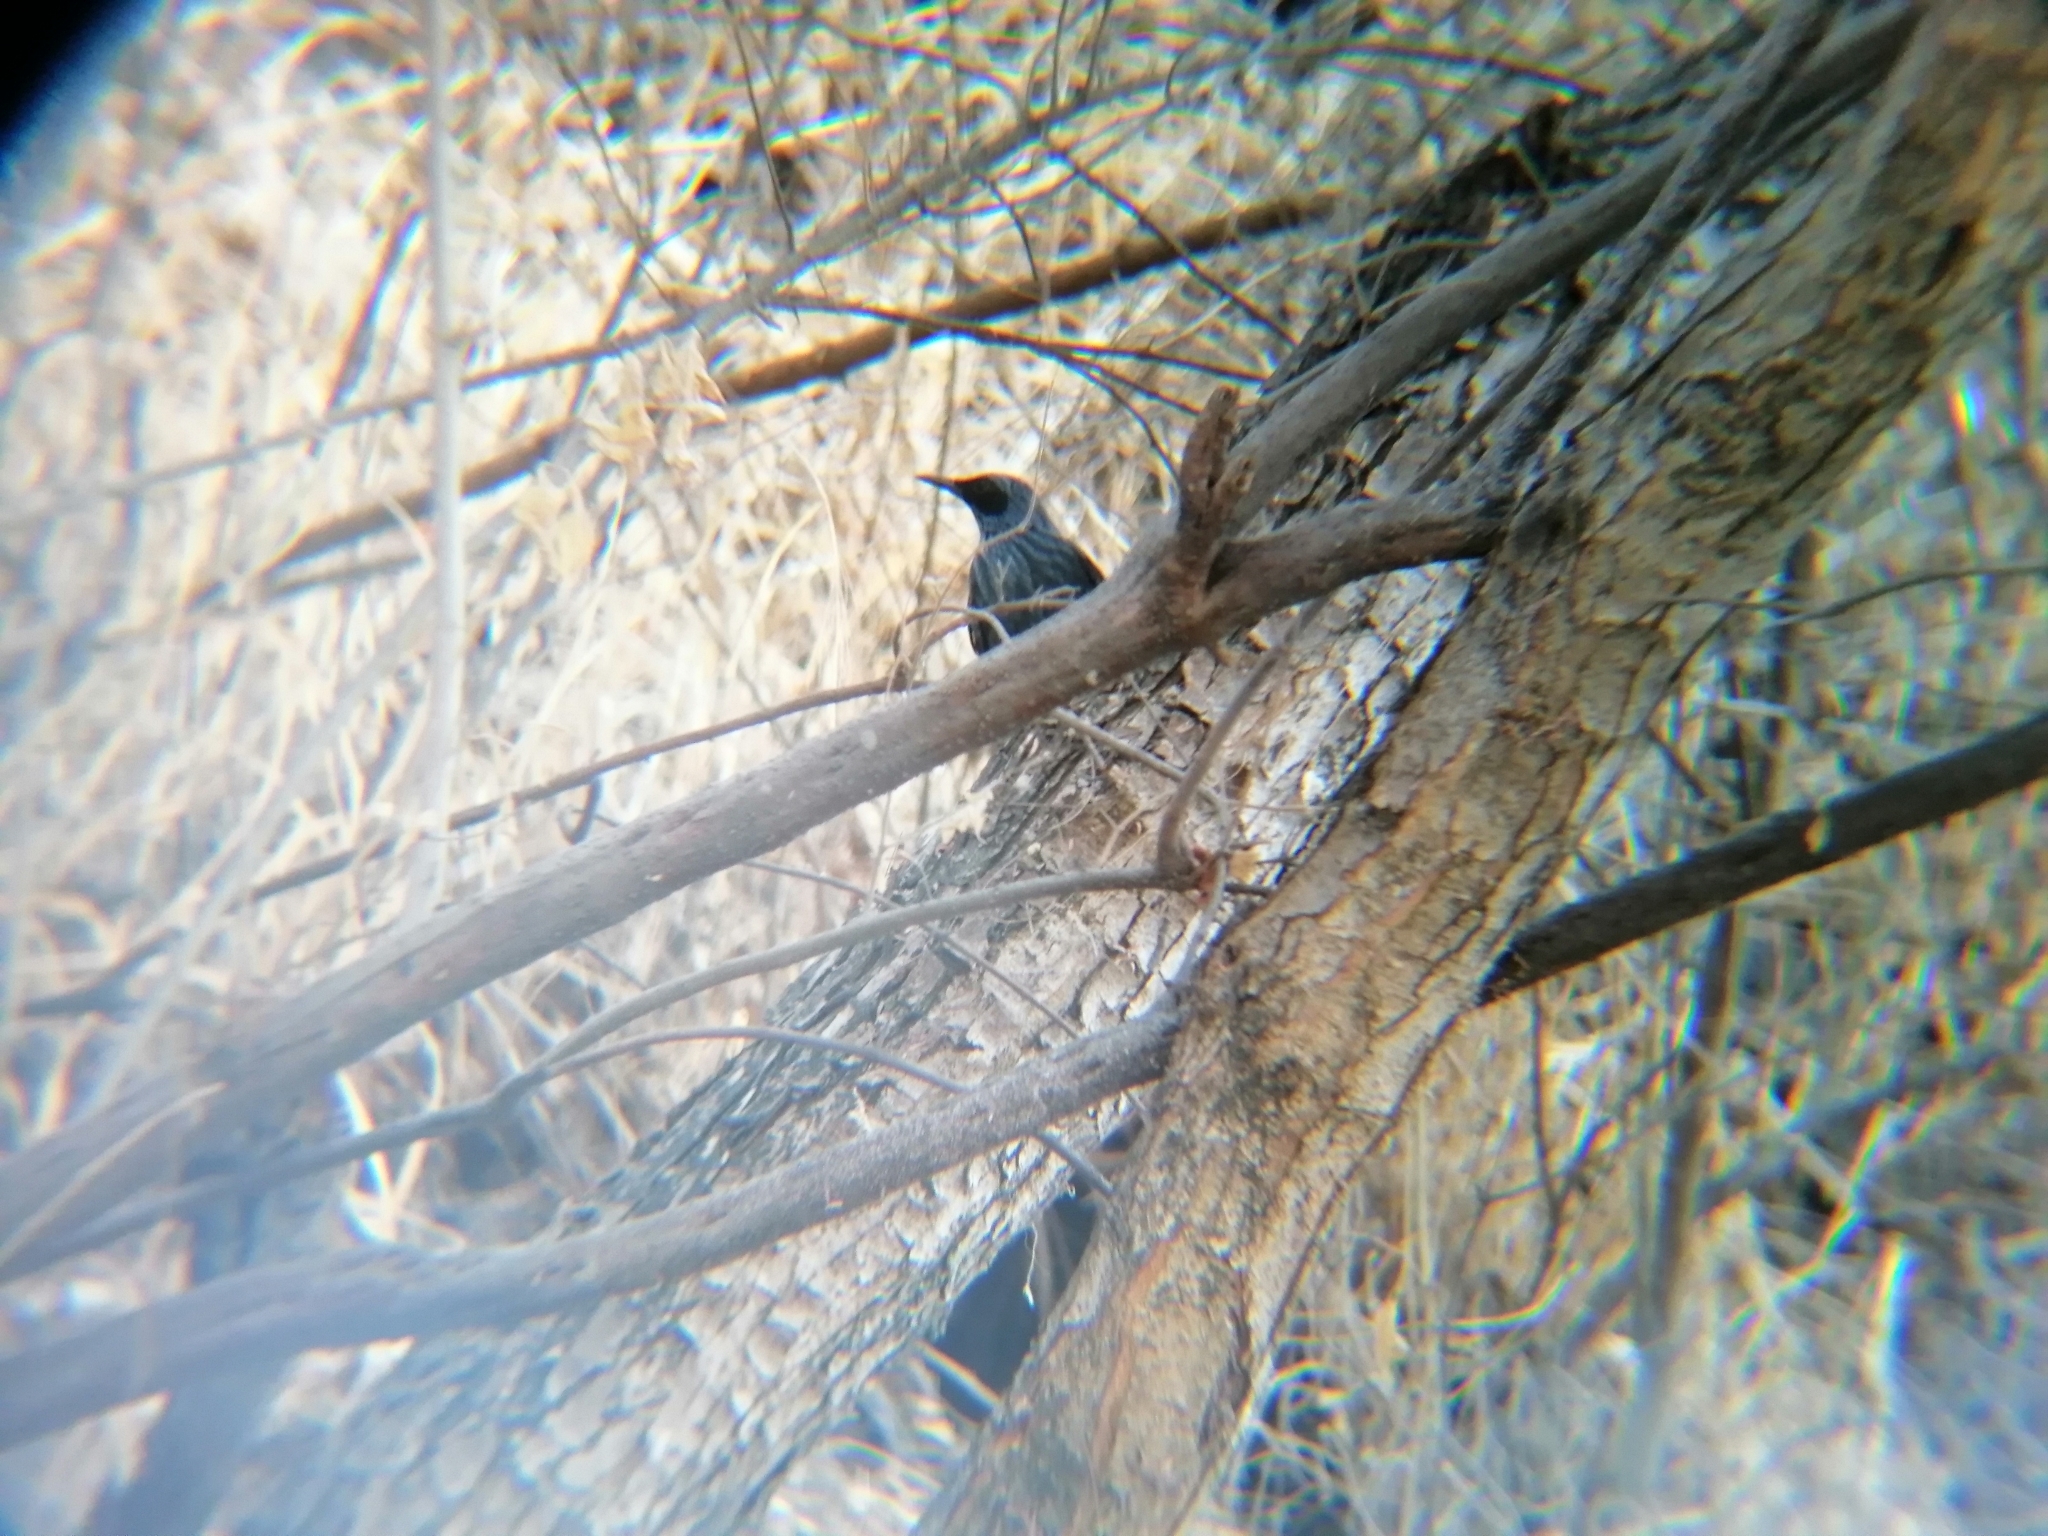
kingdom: Animalia
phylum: Chordata
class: Aves
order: Passeriformes
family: Mimidae
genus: Melanotis
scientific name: Melanotis caerulescens
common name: Blue mockingbird
